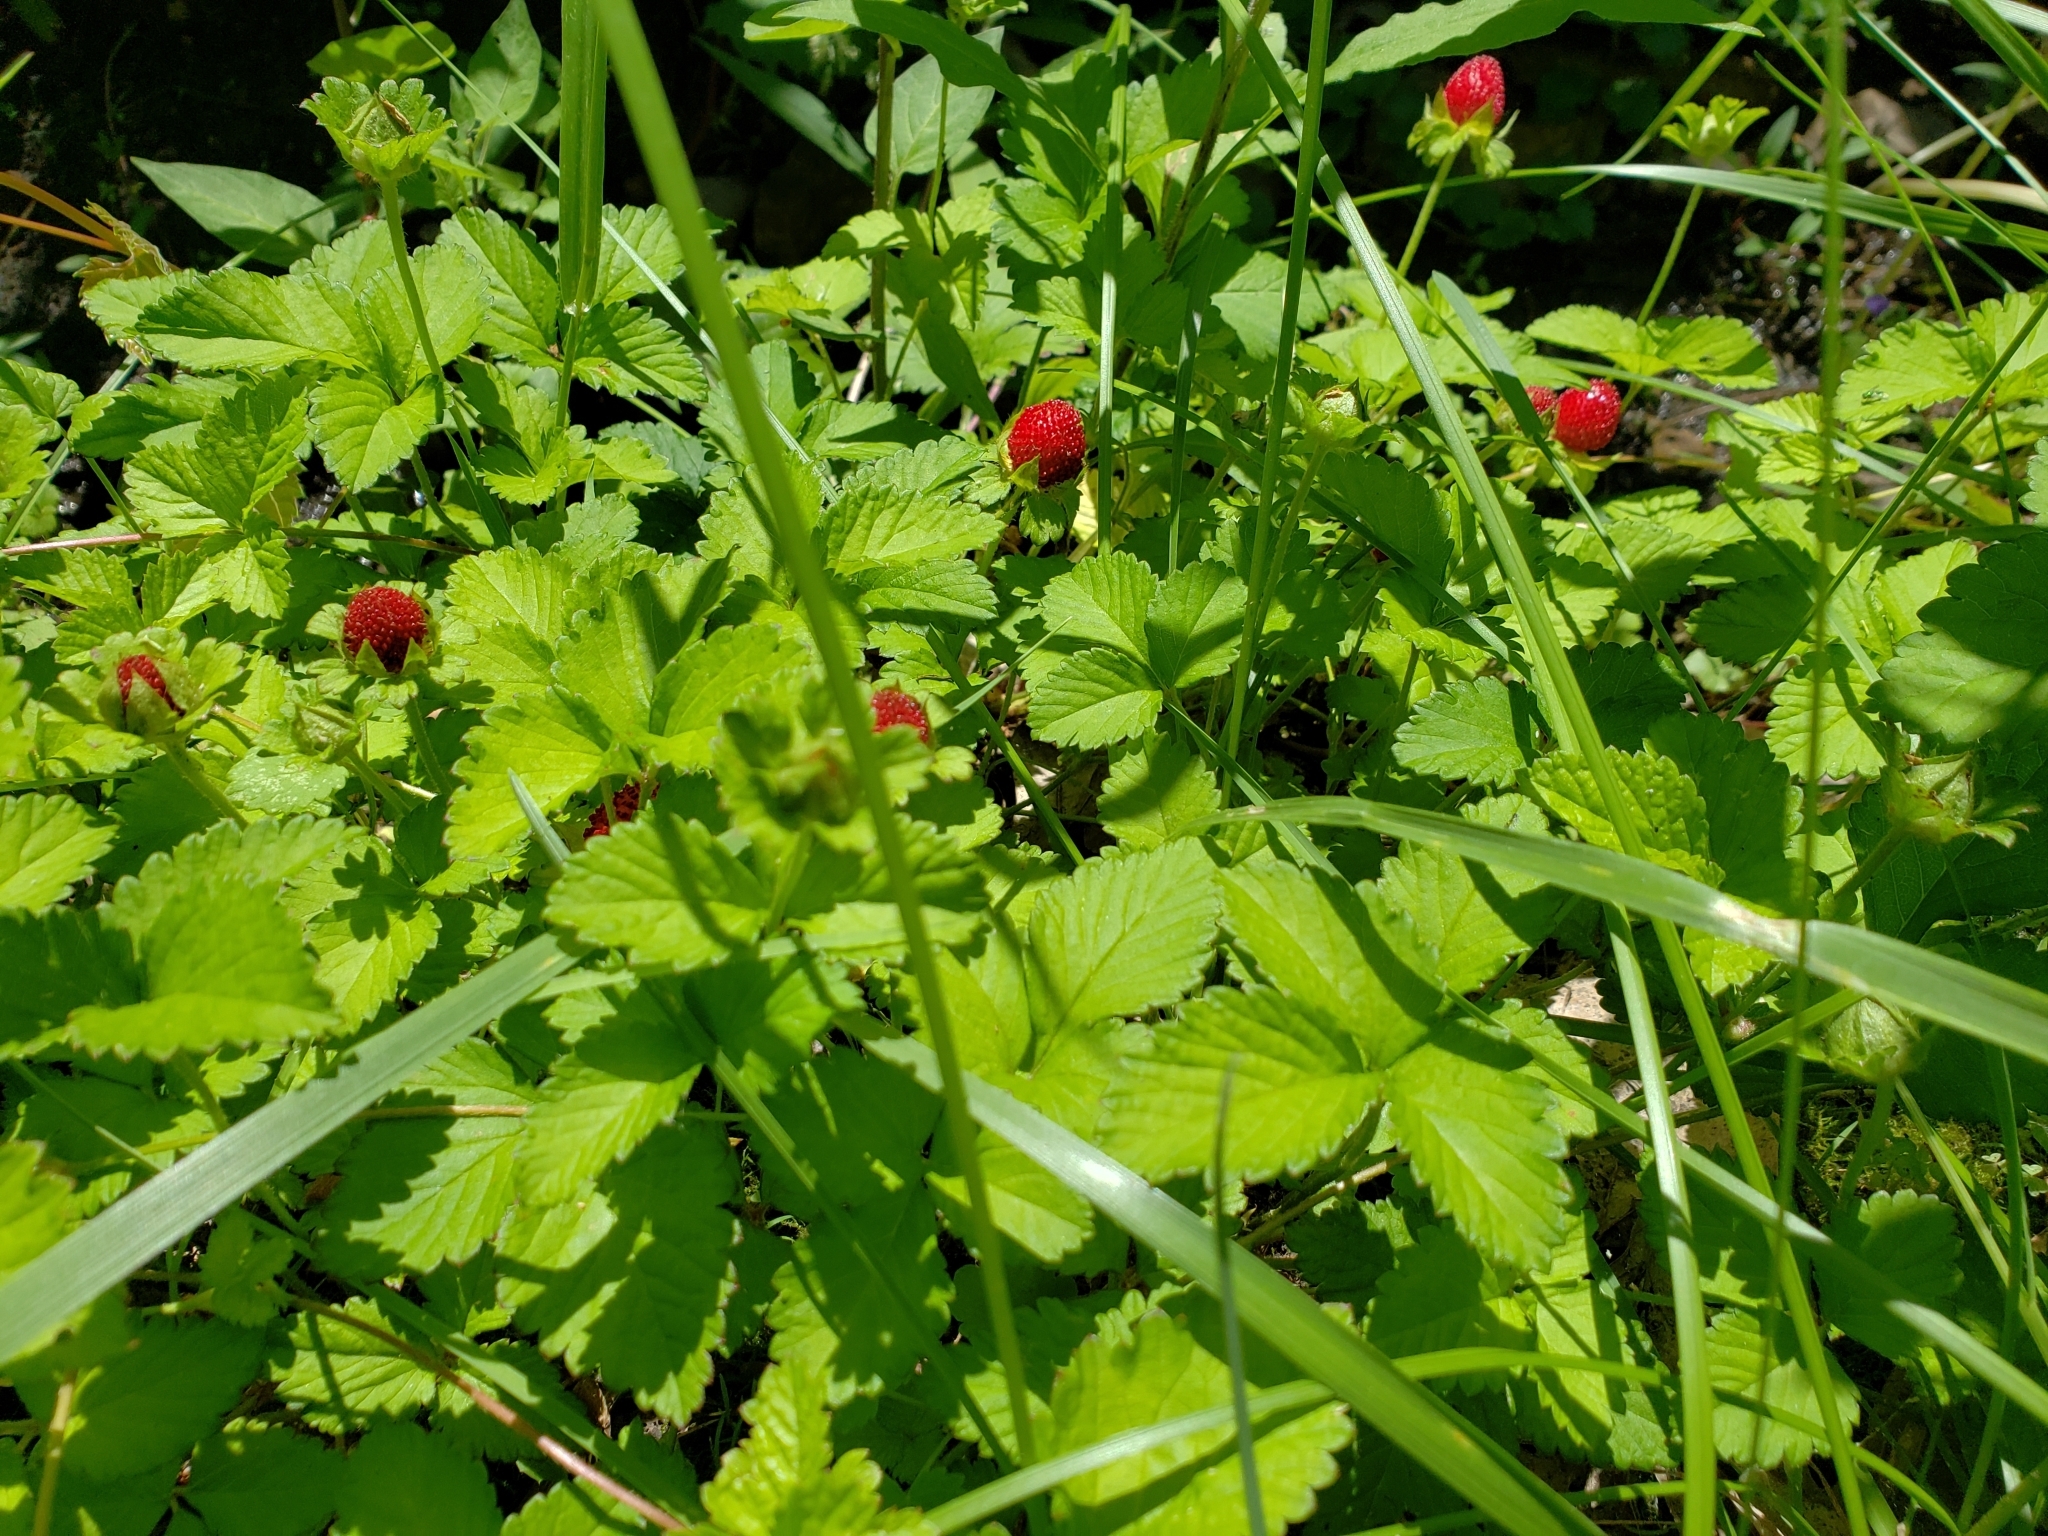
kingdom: Plantae
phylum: Tracheophyta
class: Magnoliopsida
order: Rosales
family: Rosaceae
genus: Potentilla
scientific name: Potentilla indica
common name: Yellow-flowered strawberry
